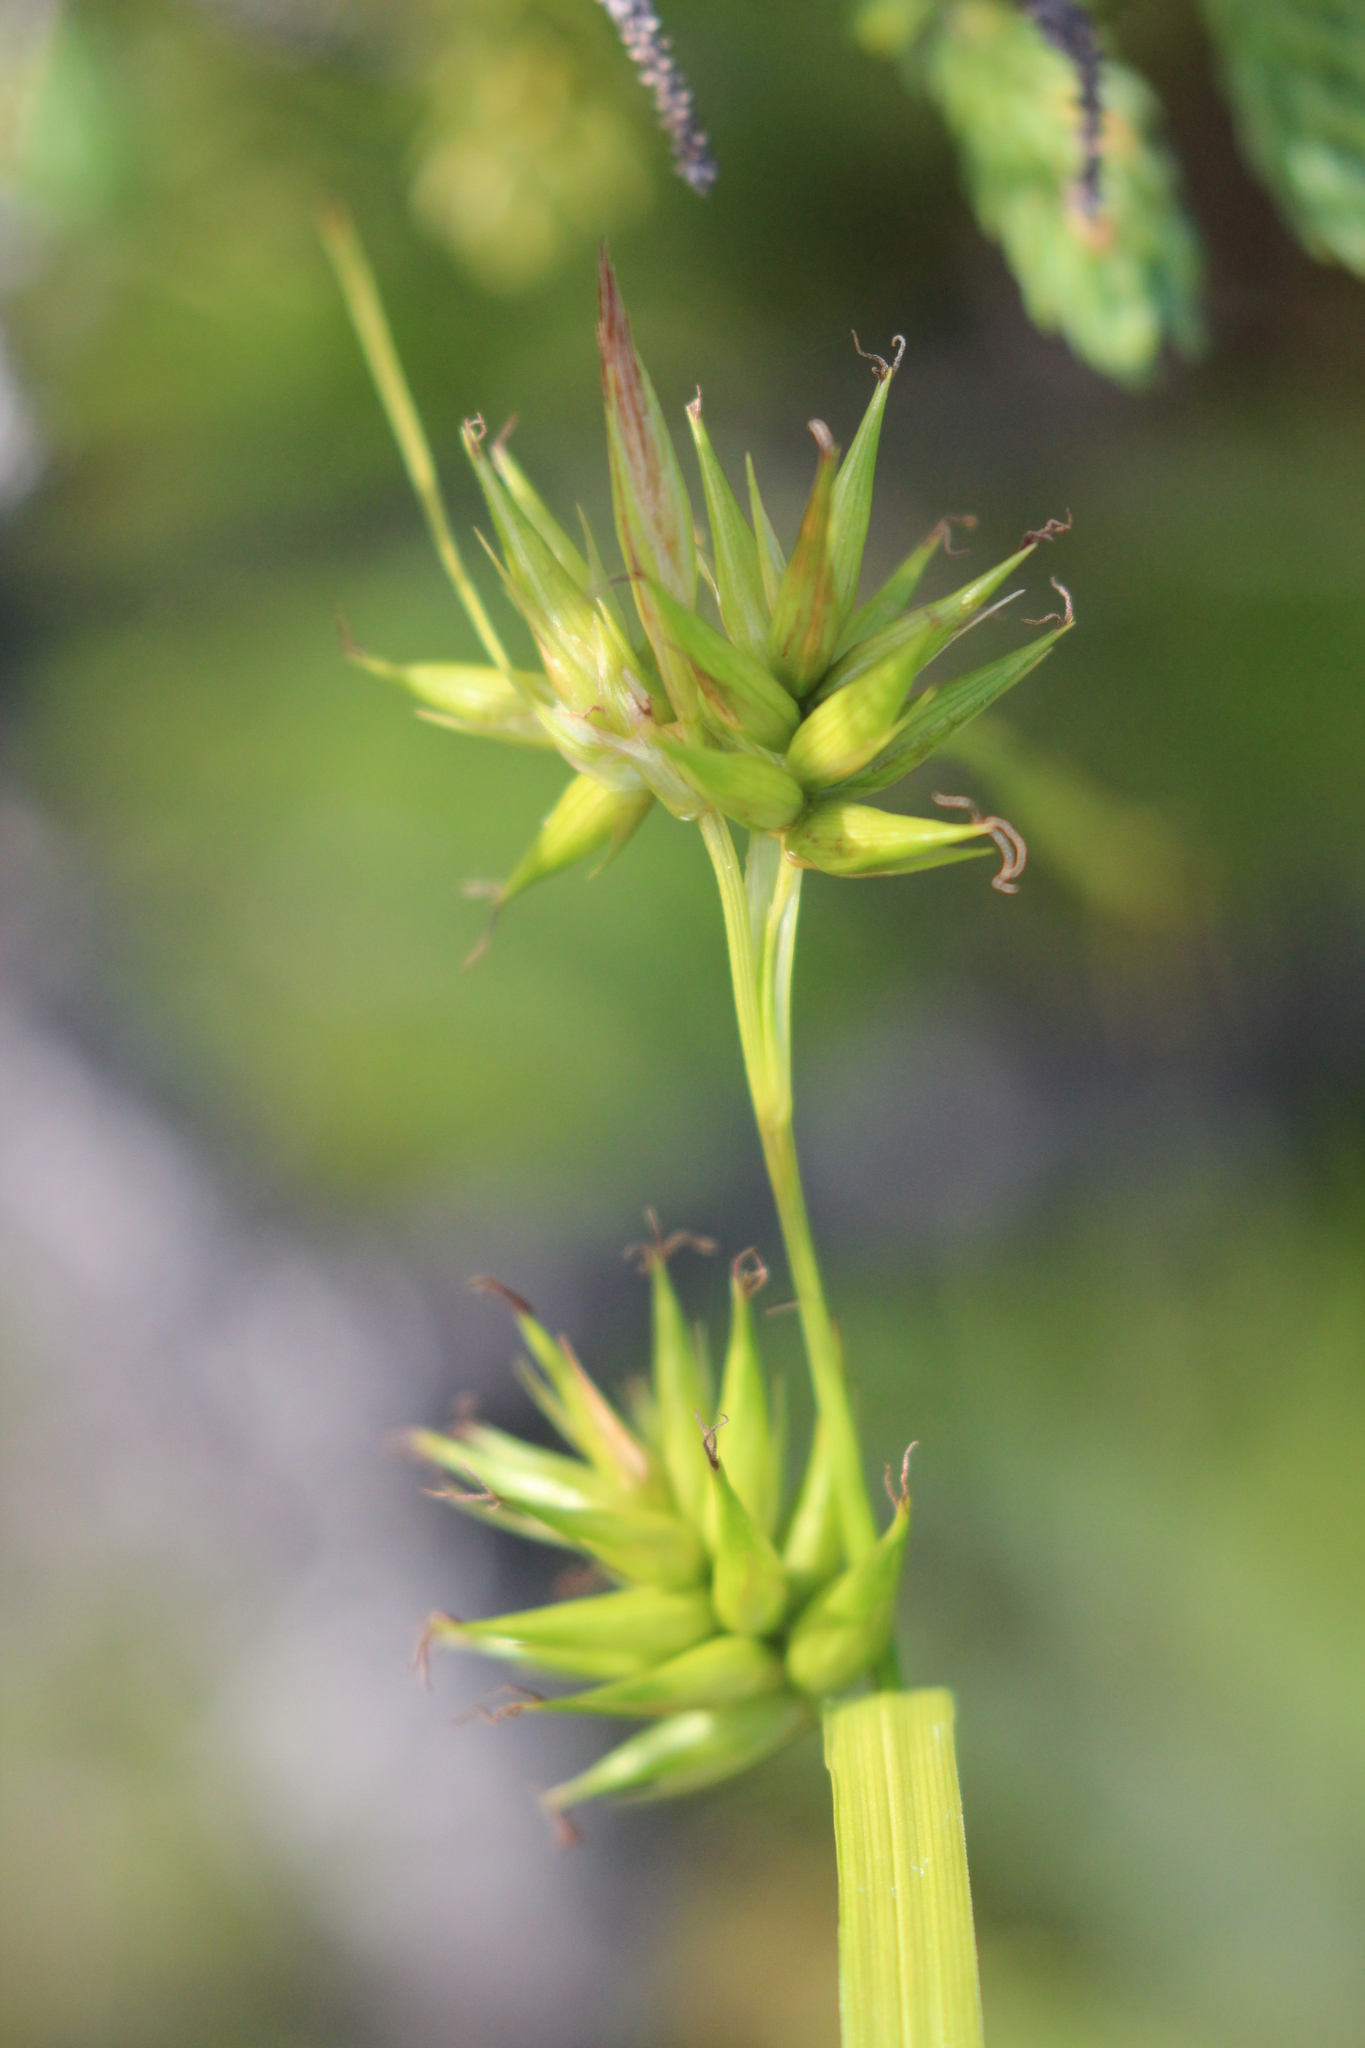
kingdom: Plantae
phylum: Tracheophyta
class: Liliopsida
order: Poales
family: Cyperaceae
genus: Carex
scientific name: Carex michauxiana
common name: Michaux's sedge
